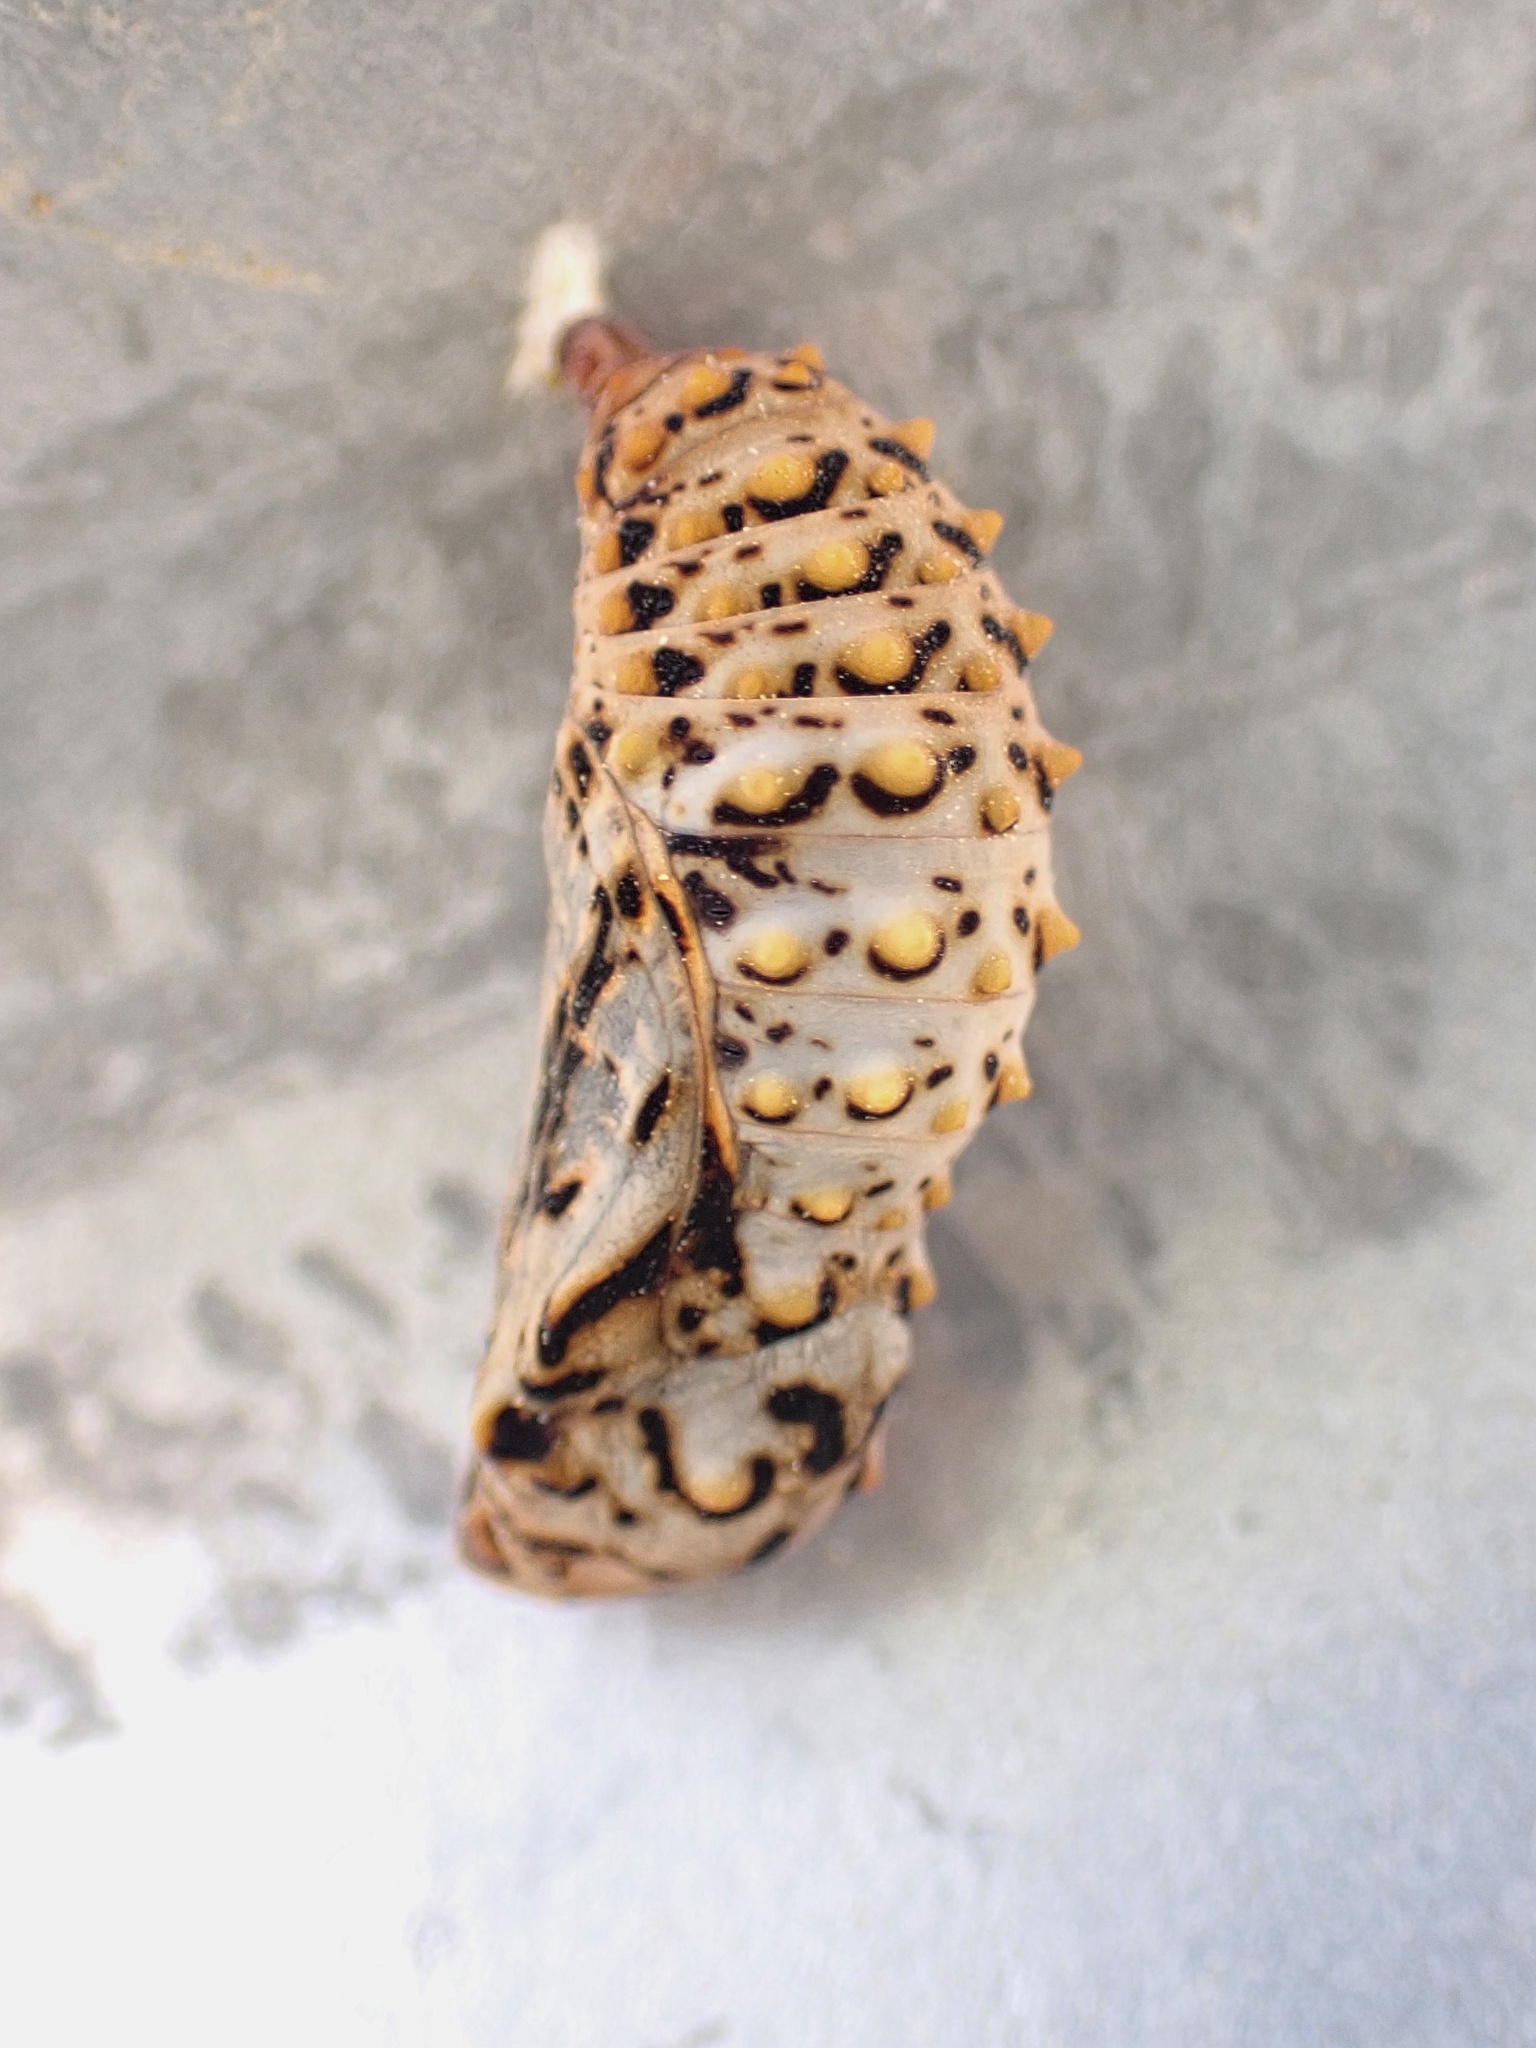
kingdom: Animalia
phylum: Arthropoda
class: Insecta
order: Lepidoptera
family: Nymphalidae
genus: Occidryas
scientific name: Occidryas chalcedona
